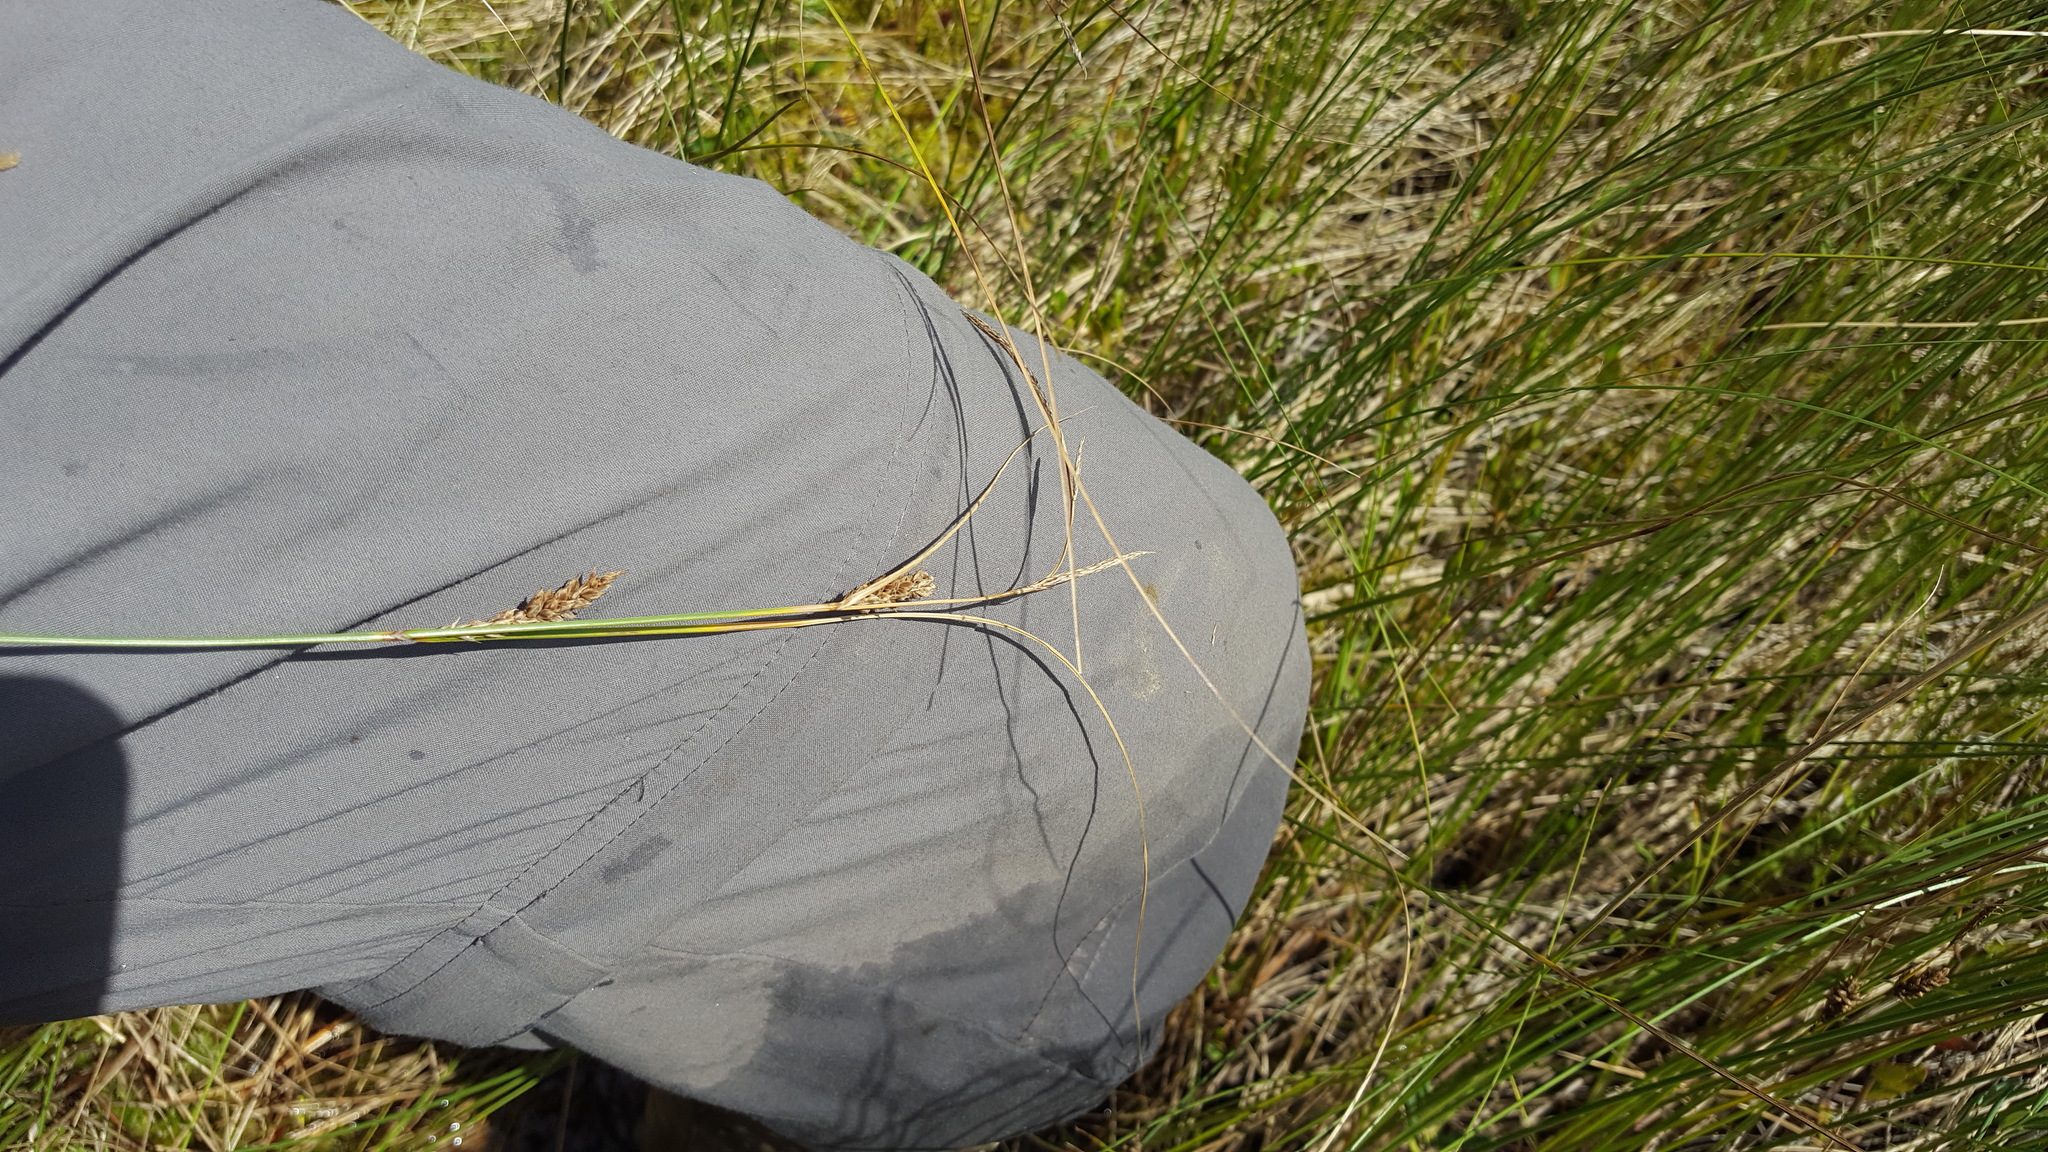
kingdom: Plantae
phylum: Tracheophyta
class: Liliopsida
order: Poales
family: Cyperaceae
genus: Carex
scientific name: Carex lasiocarpa
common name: Slender sedge
